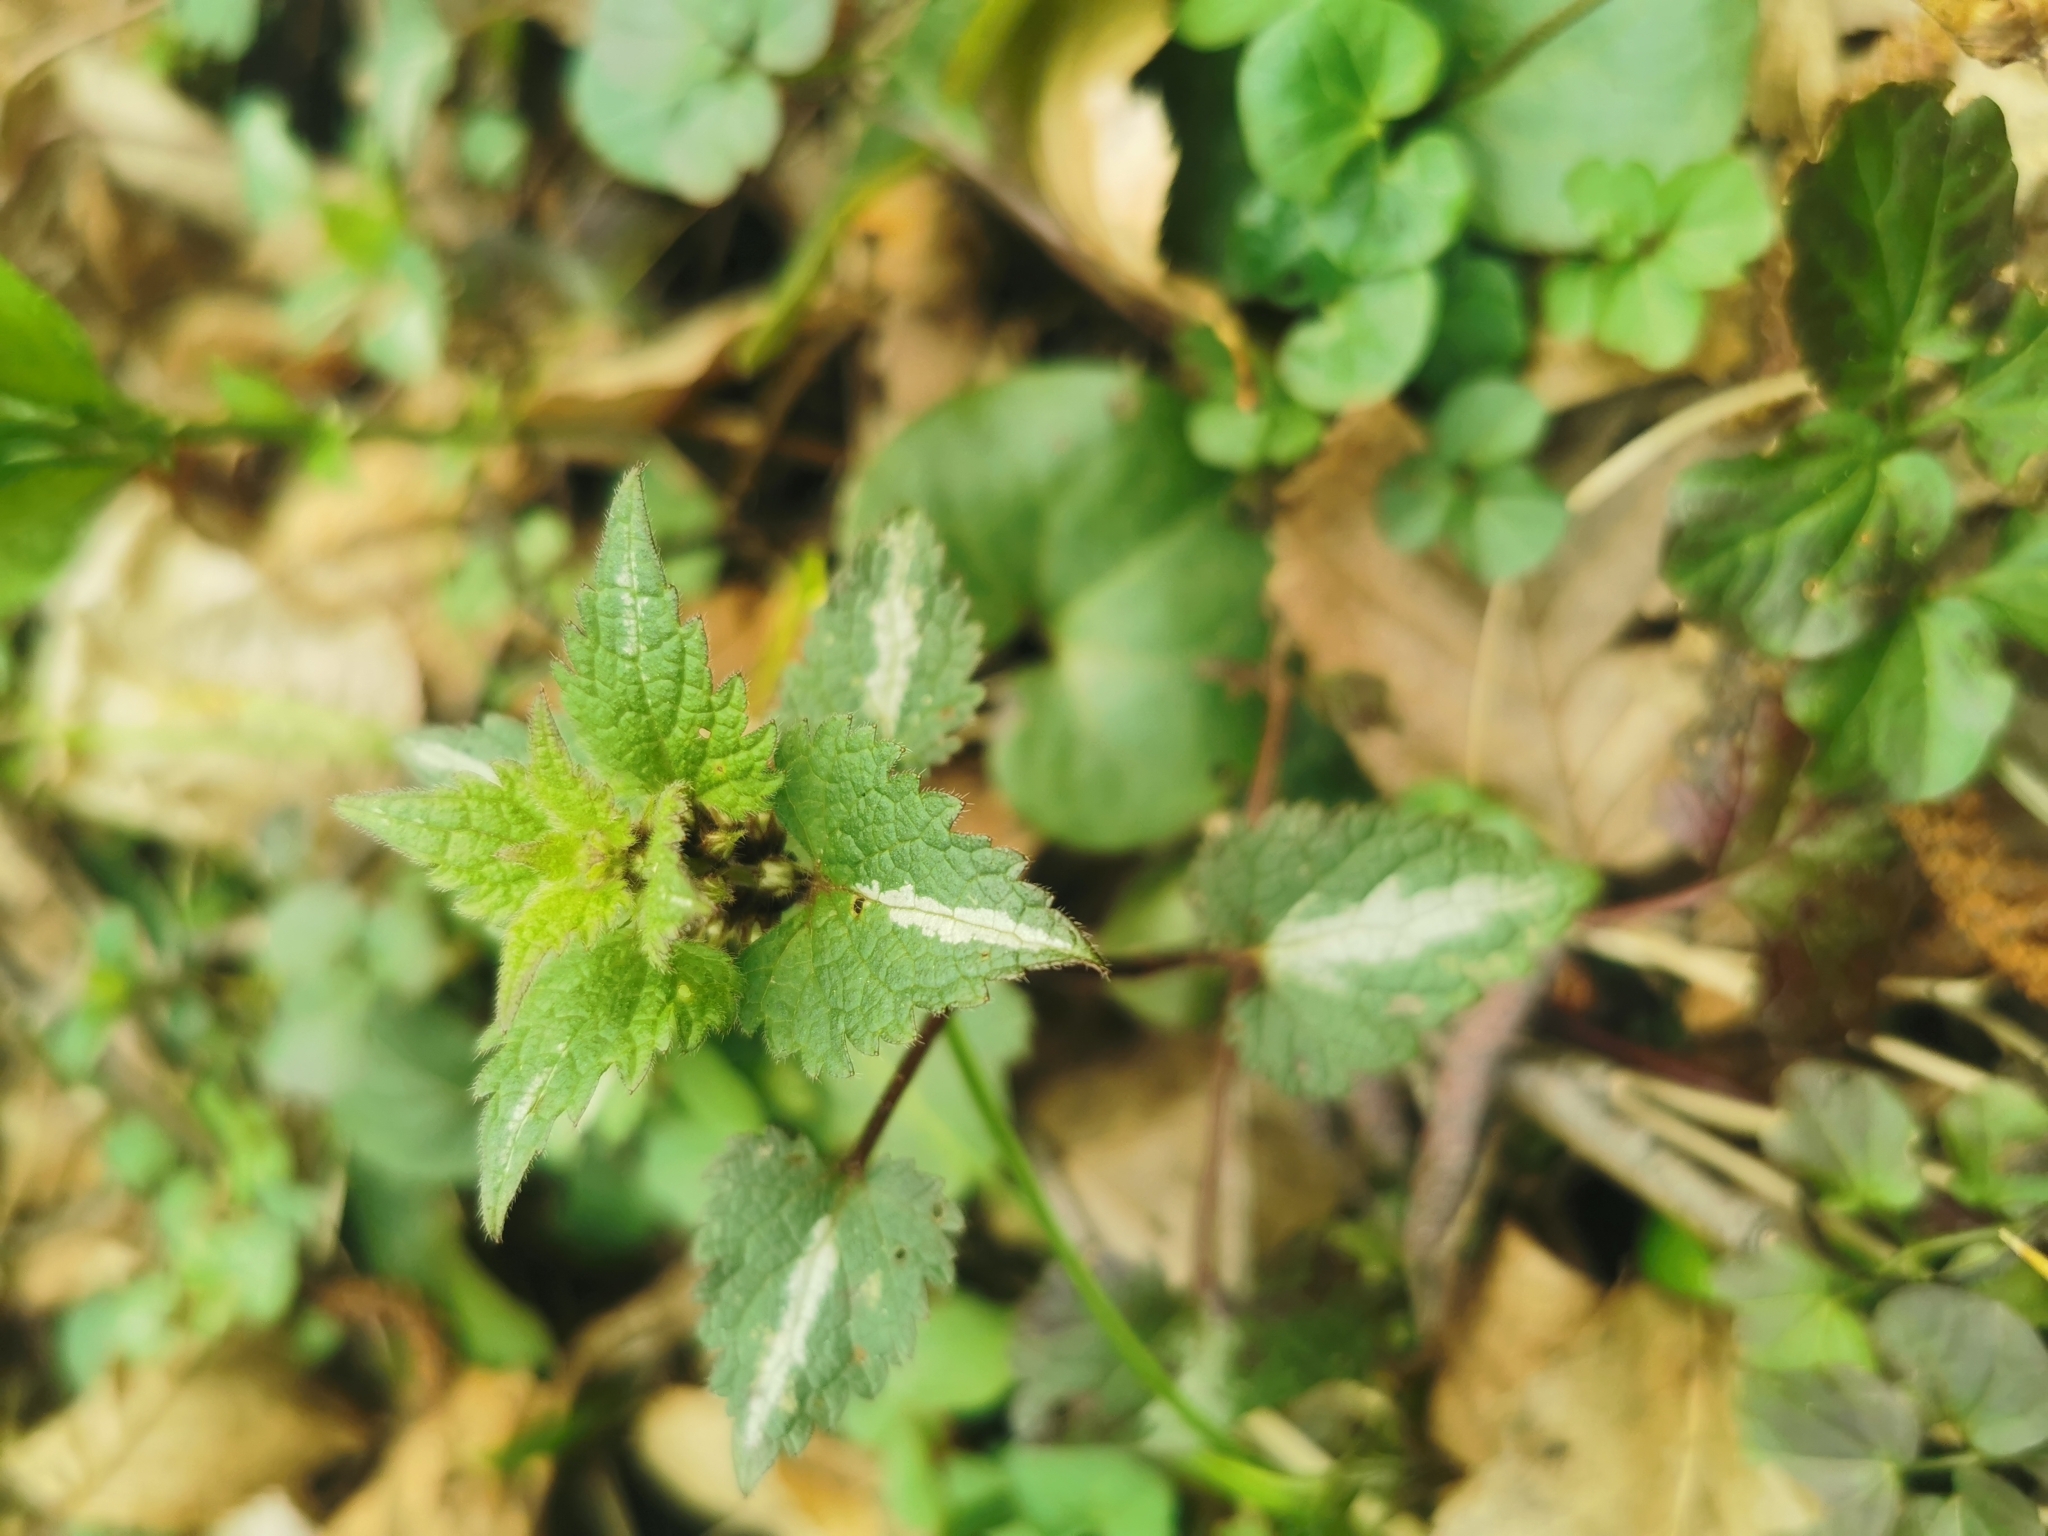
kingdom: Plantae
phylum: Tracheophyta
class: Magnoliopsida
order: Lamiales
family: Lamiaceae
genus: Lamium
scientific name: Lamium maculatum
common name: Spotted dead-nettle
